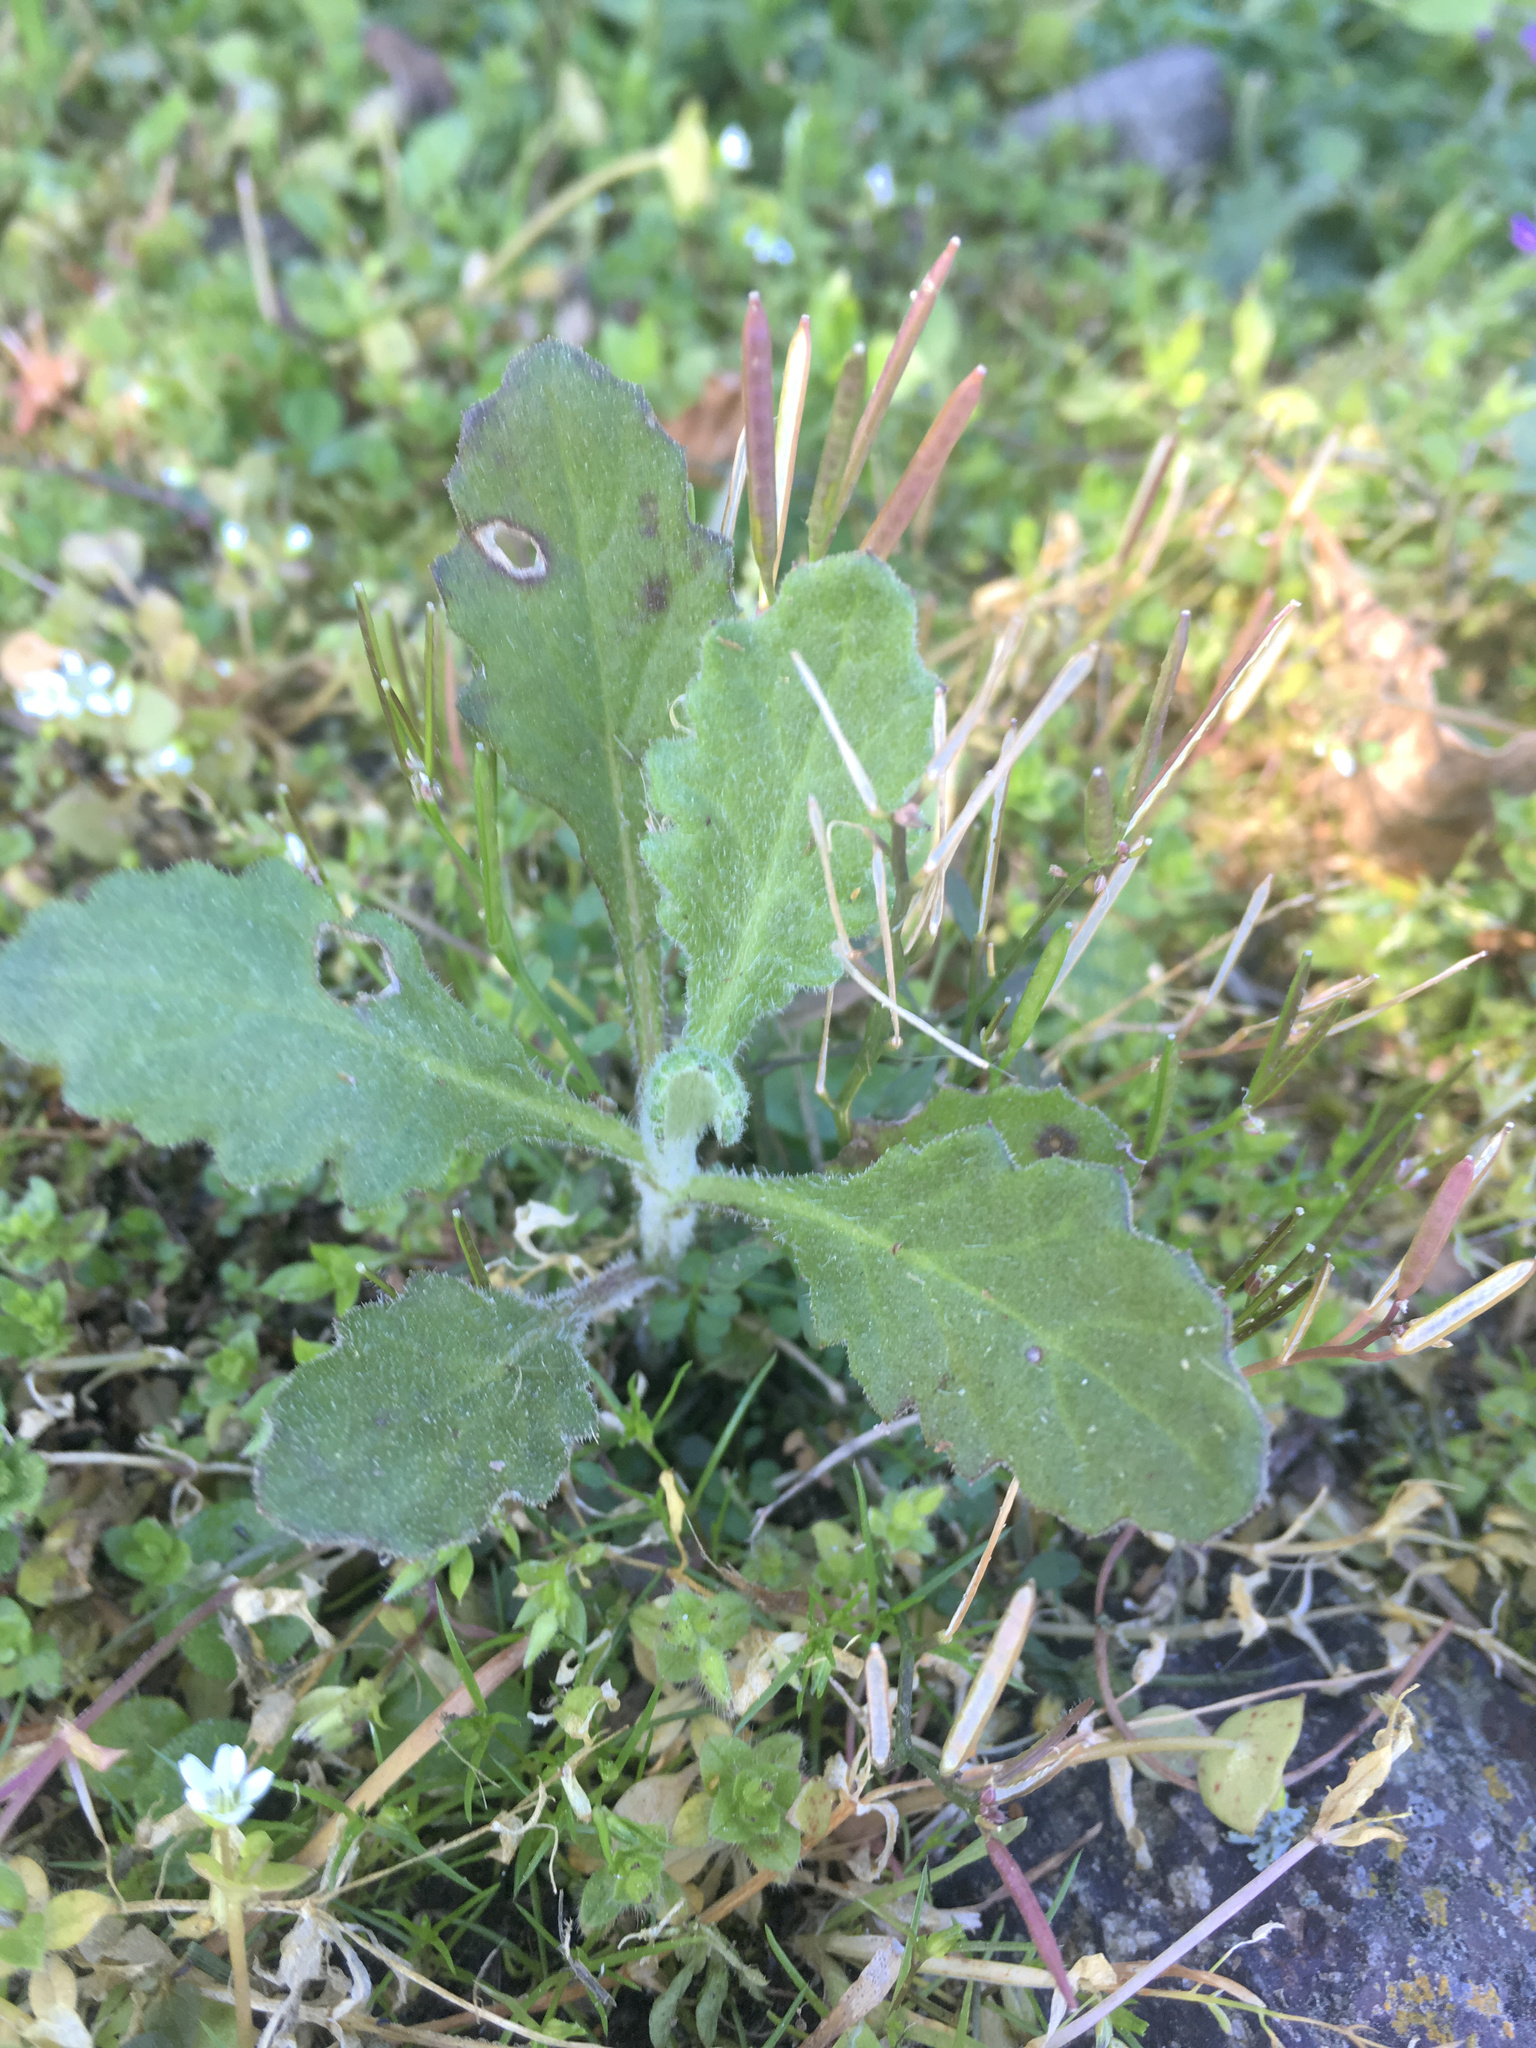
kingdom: Plantae
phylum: Tracheophyta
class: Magnoliopsida
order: Asterales
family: Asteraceae
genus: Senecio
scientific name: Senecio glomeratus
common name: Cutleaf burnweed
